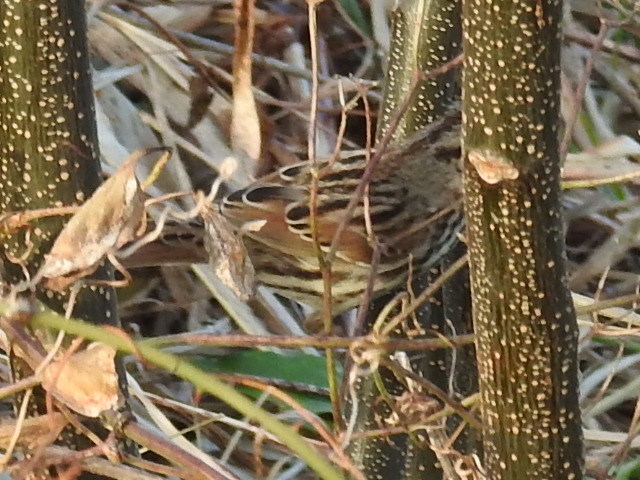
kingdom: Animalia
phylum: Chordata
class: Aves
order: Passeriformes
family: Passerellidae
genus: Melospiza
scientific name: Melospiza melodia
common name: Song sparrow
